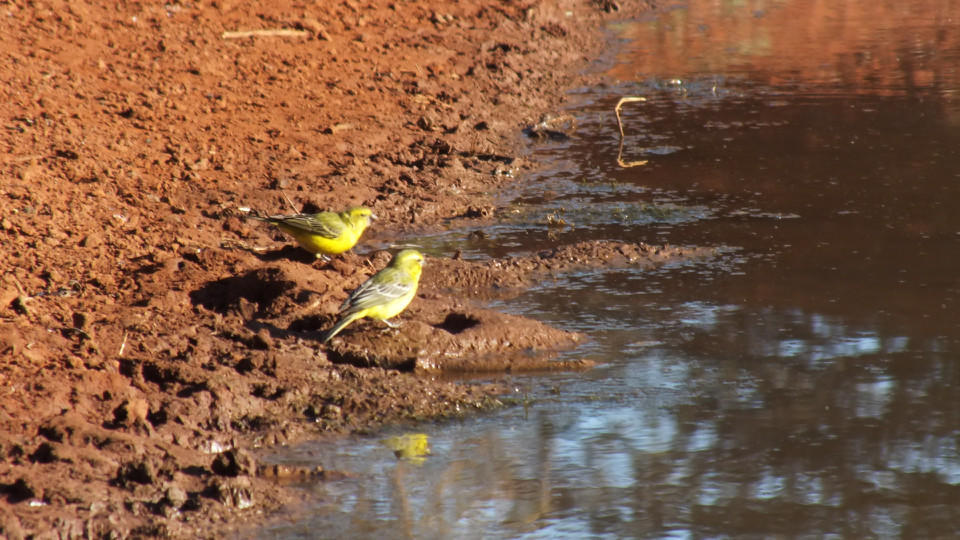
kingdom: Animalia
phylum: Chordata
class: Aves
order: Passeriformes
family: Fringillidae
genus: Crithagra
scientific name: Crithagra flaviventris
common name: Yellow canary
